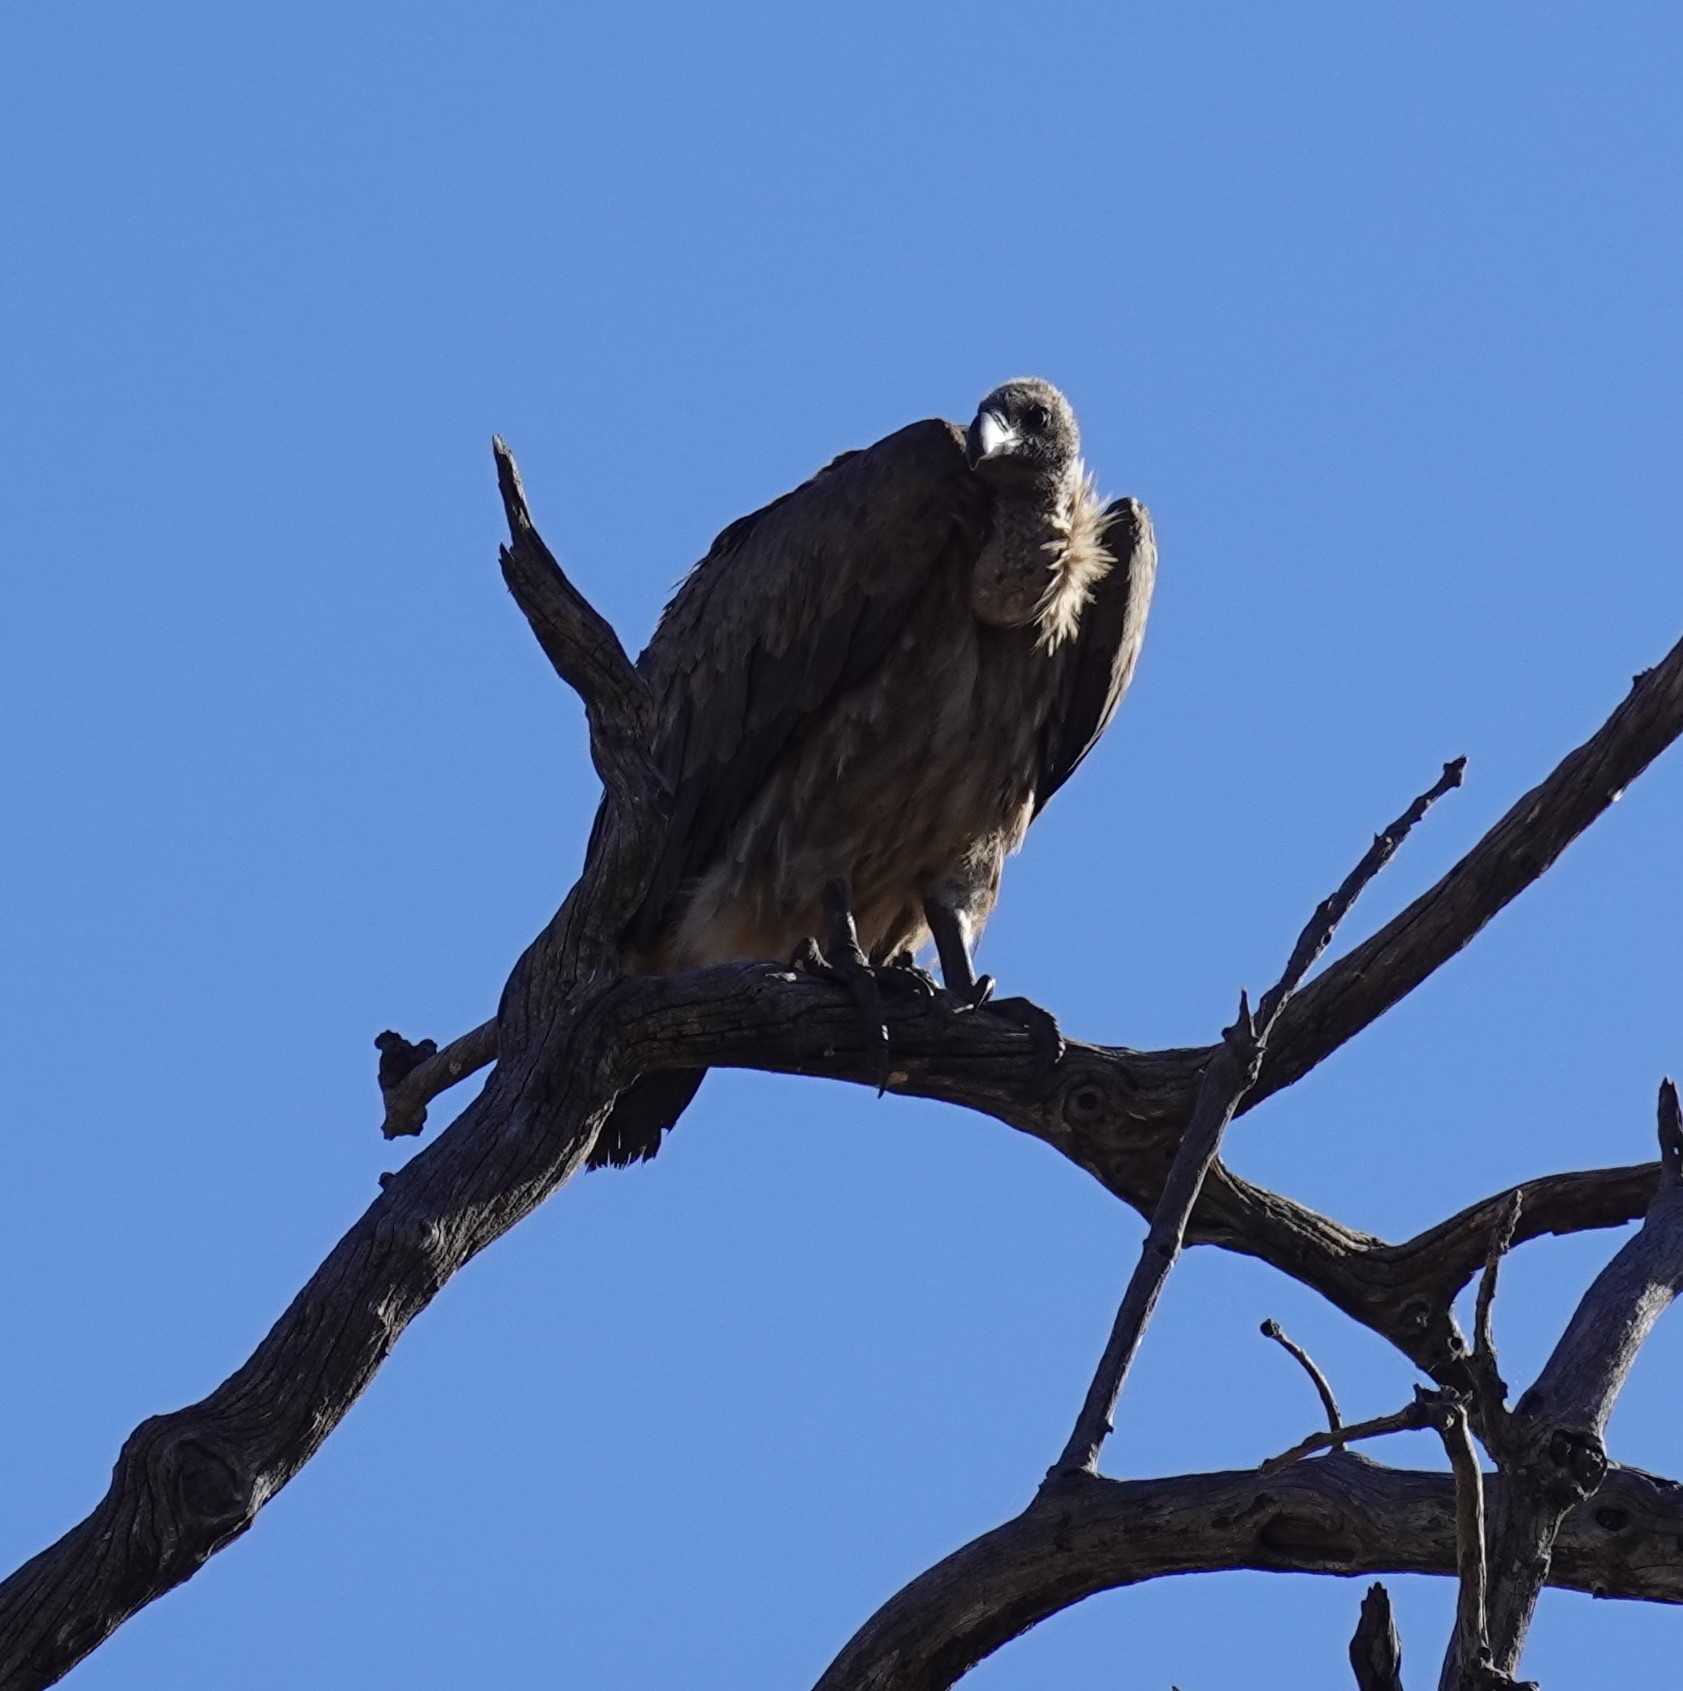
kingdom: Animalia
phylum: Chordata
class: Aves
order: Accipitriformes
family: Accipitridae
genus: Gyps
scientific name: Gyps africanus
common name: White-backed vulture
